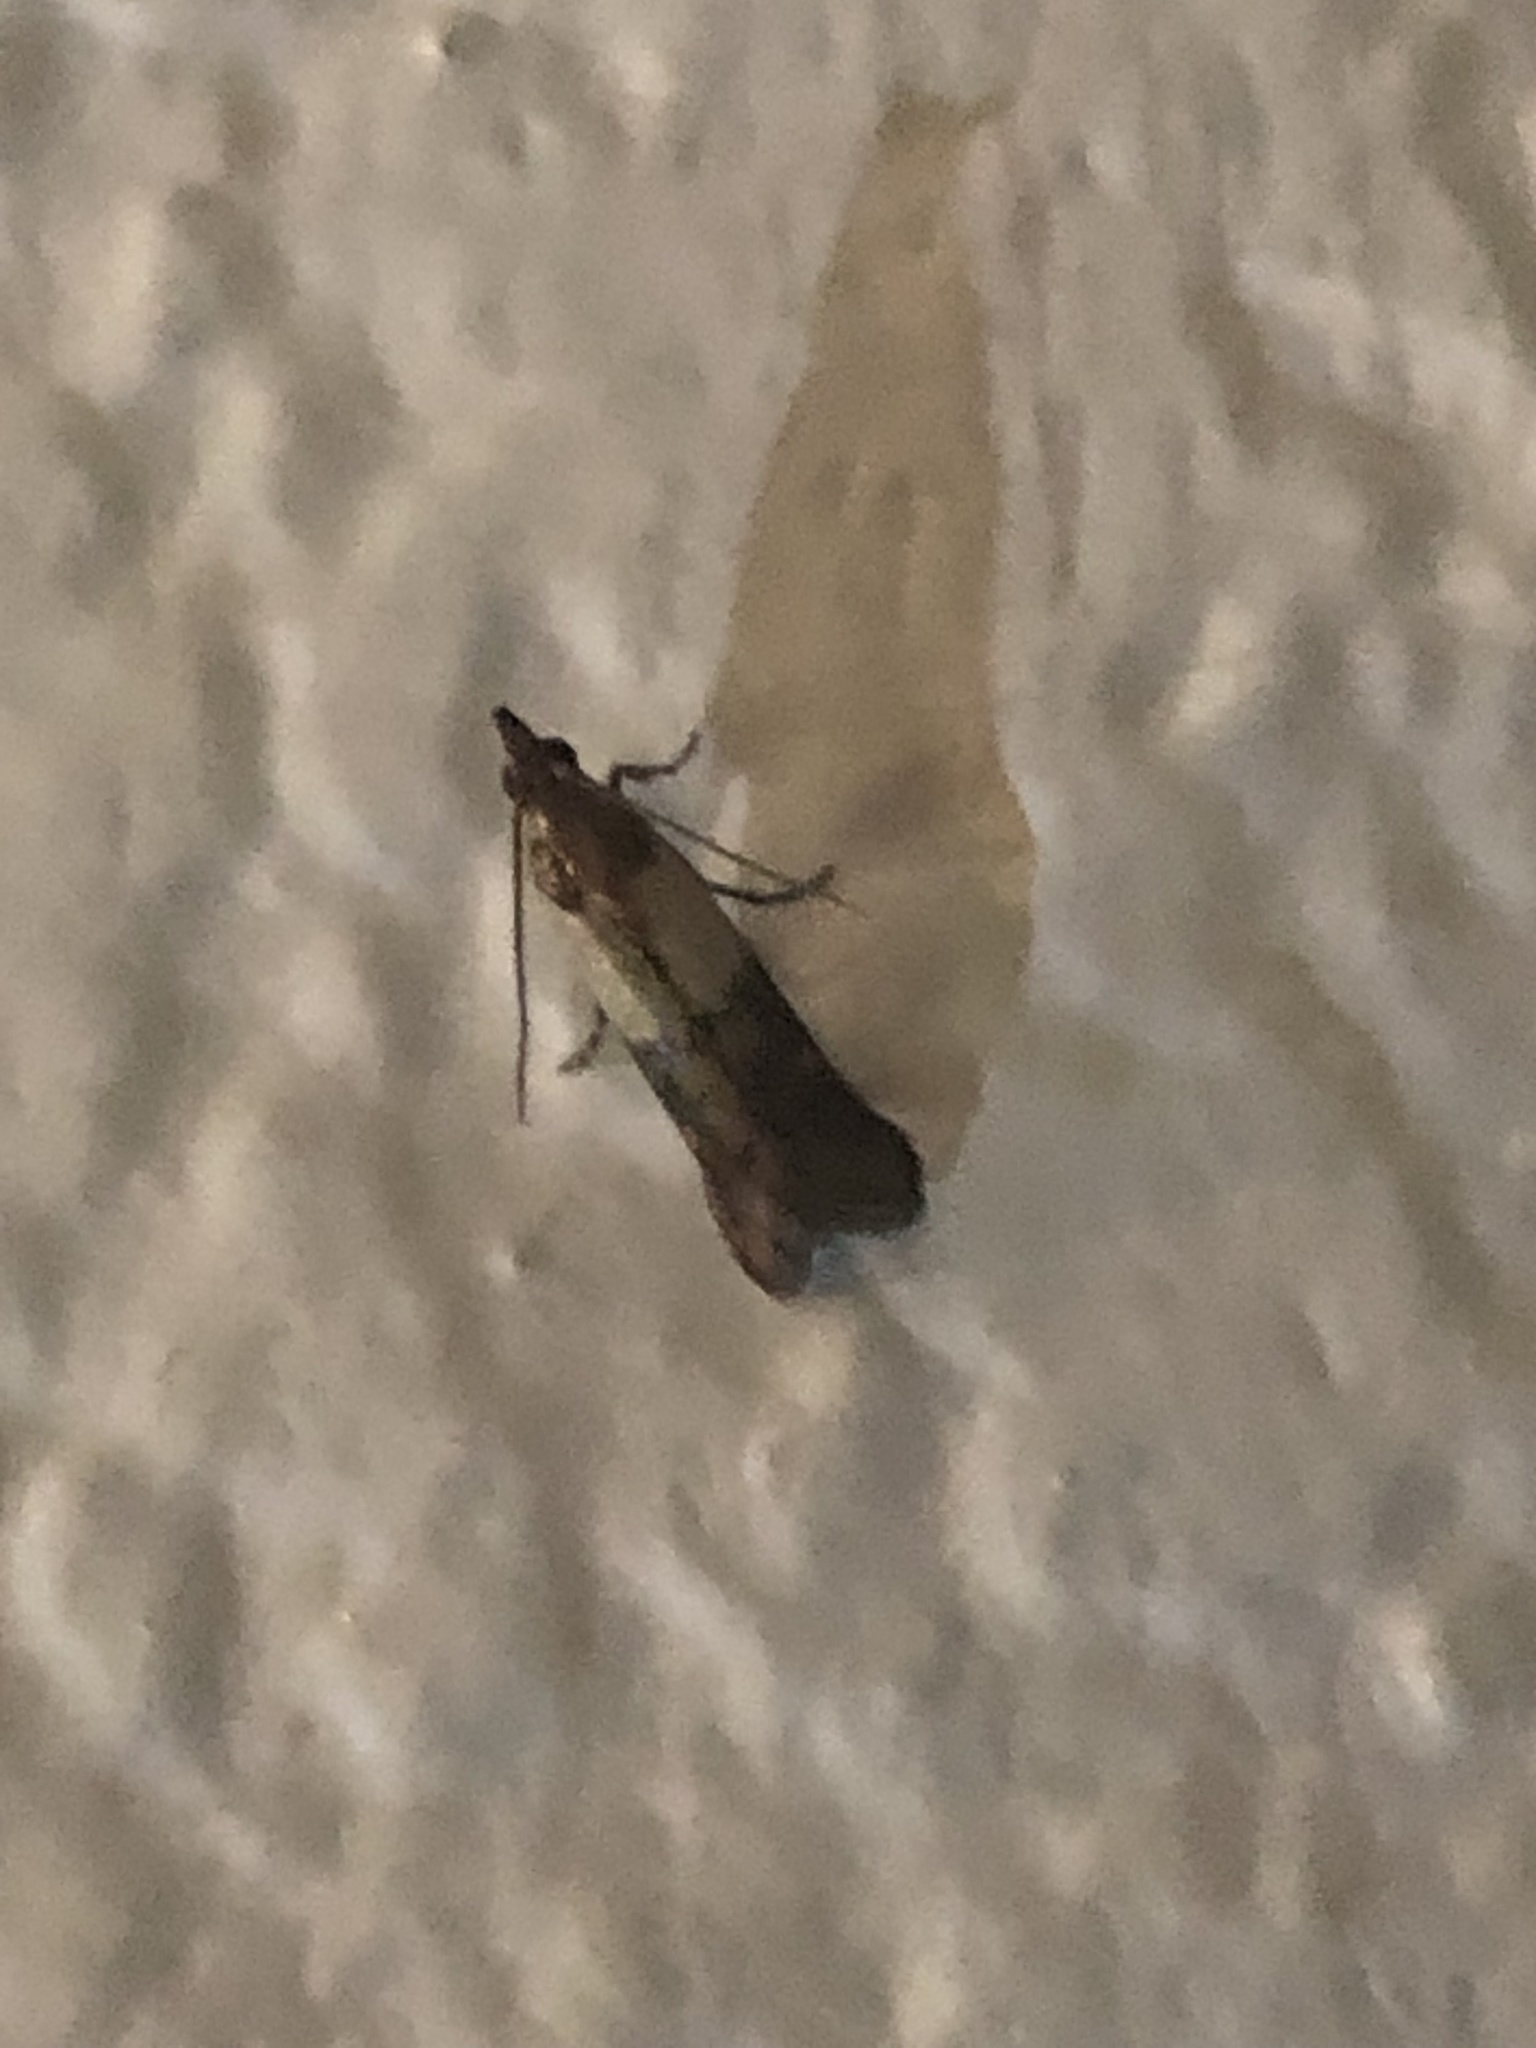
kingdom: Animalia
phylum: Arthropoda
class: Insecta
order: Lepidoptera
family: Pyralidae
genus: Plodia
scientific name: Plodia interpunctella
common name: Indian meal moth
